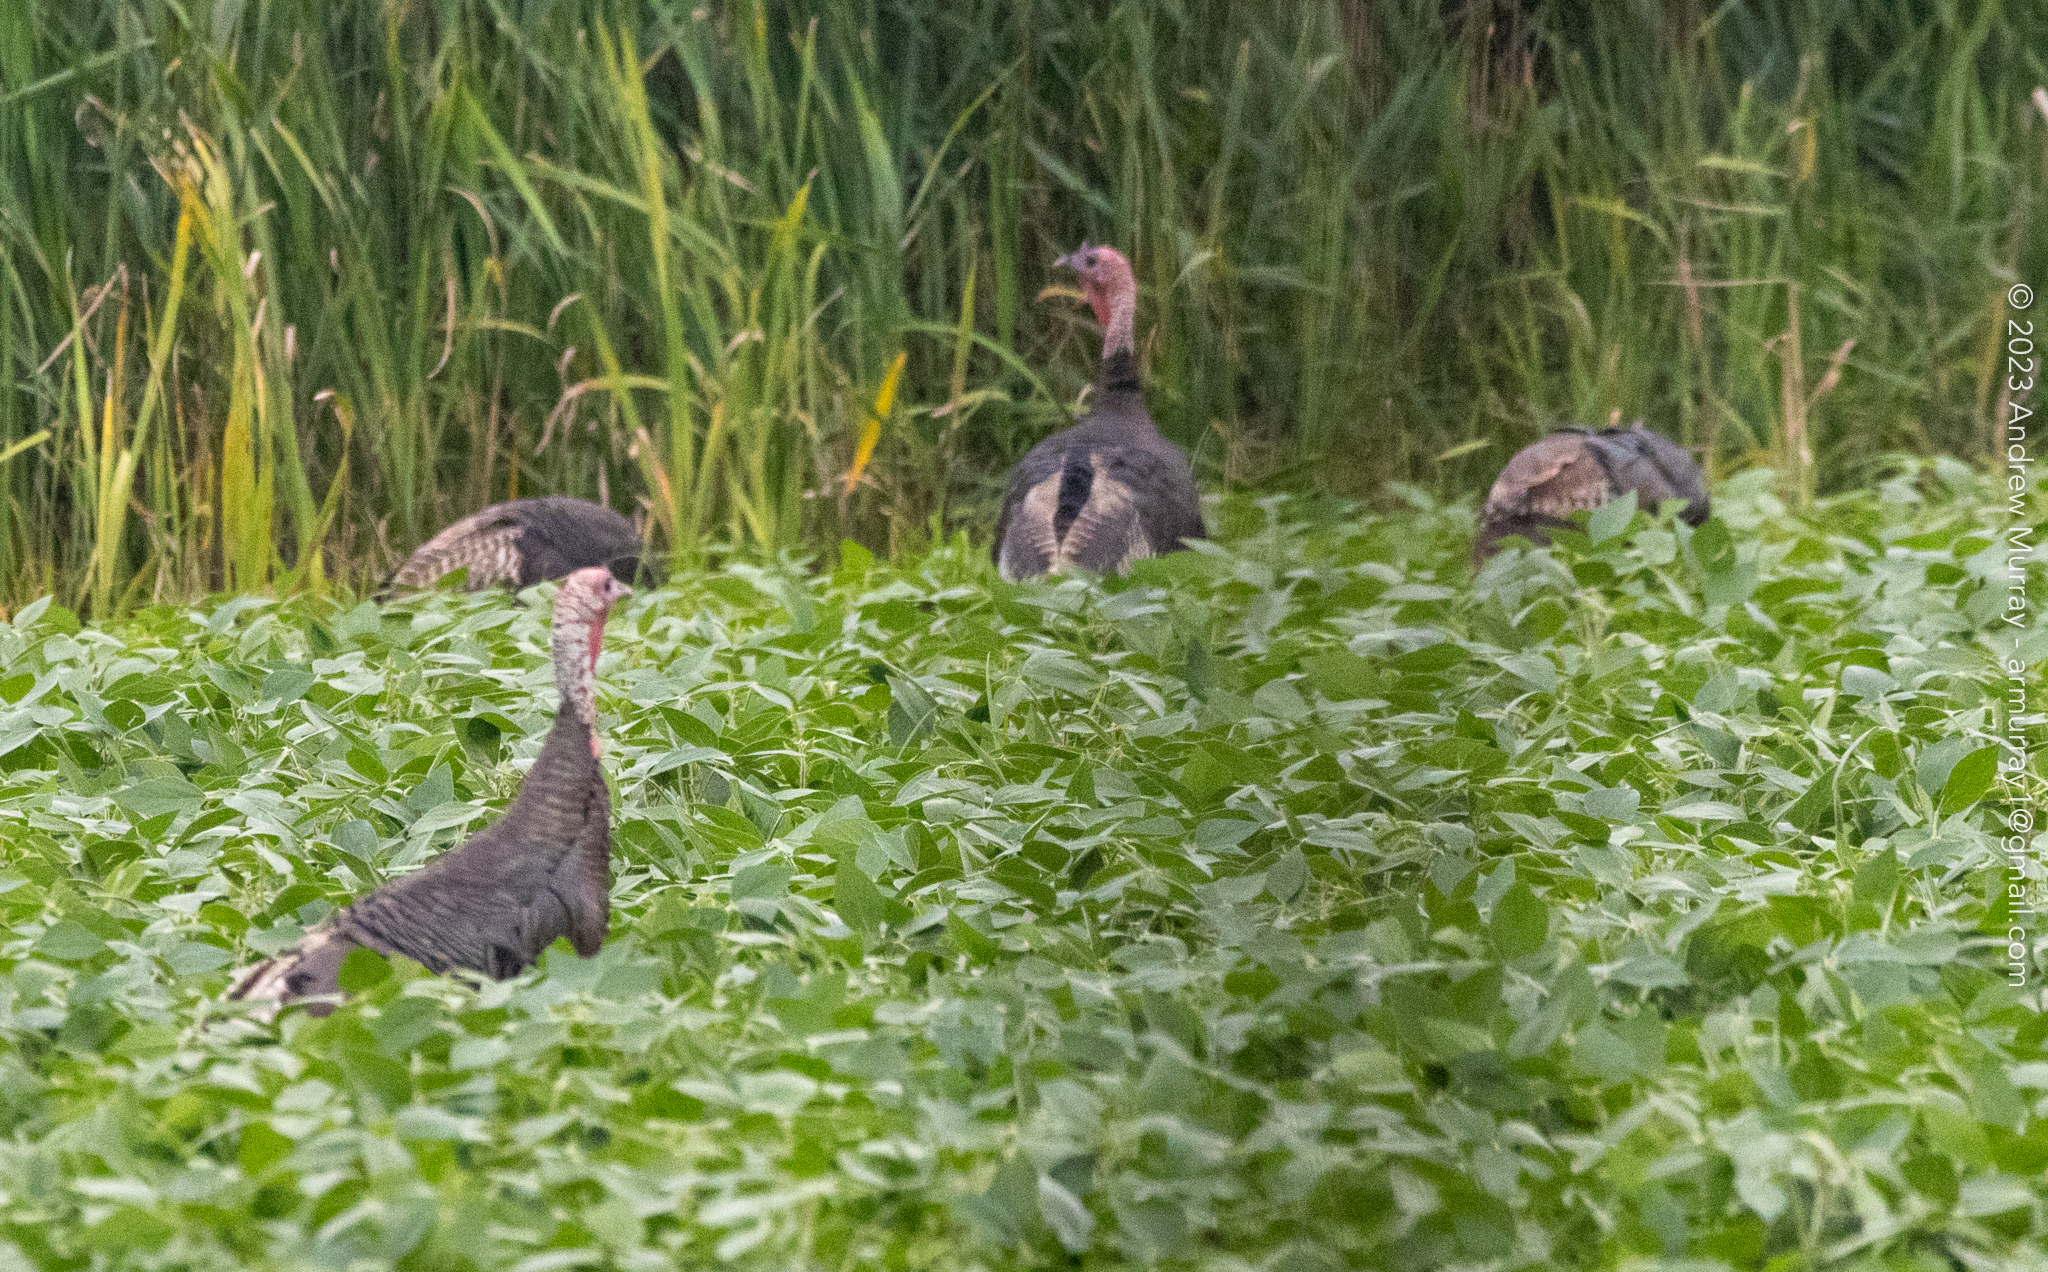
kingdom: Animalia
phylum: Chordata
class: Aves
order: Galliformes
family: Phasianidae
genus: Meleagris
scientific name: Meleagris gallopavo
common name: Wild turkey
